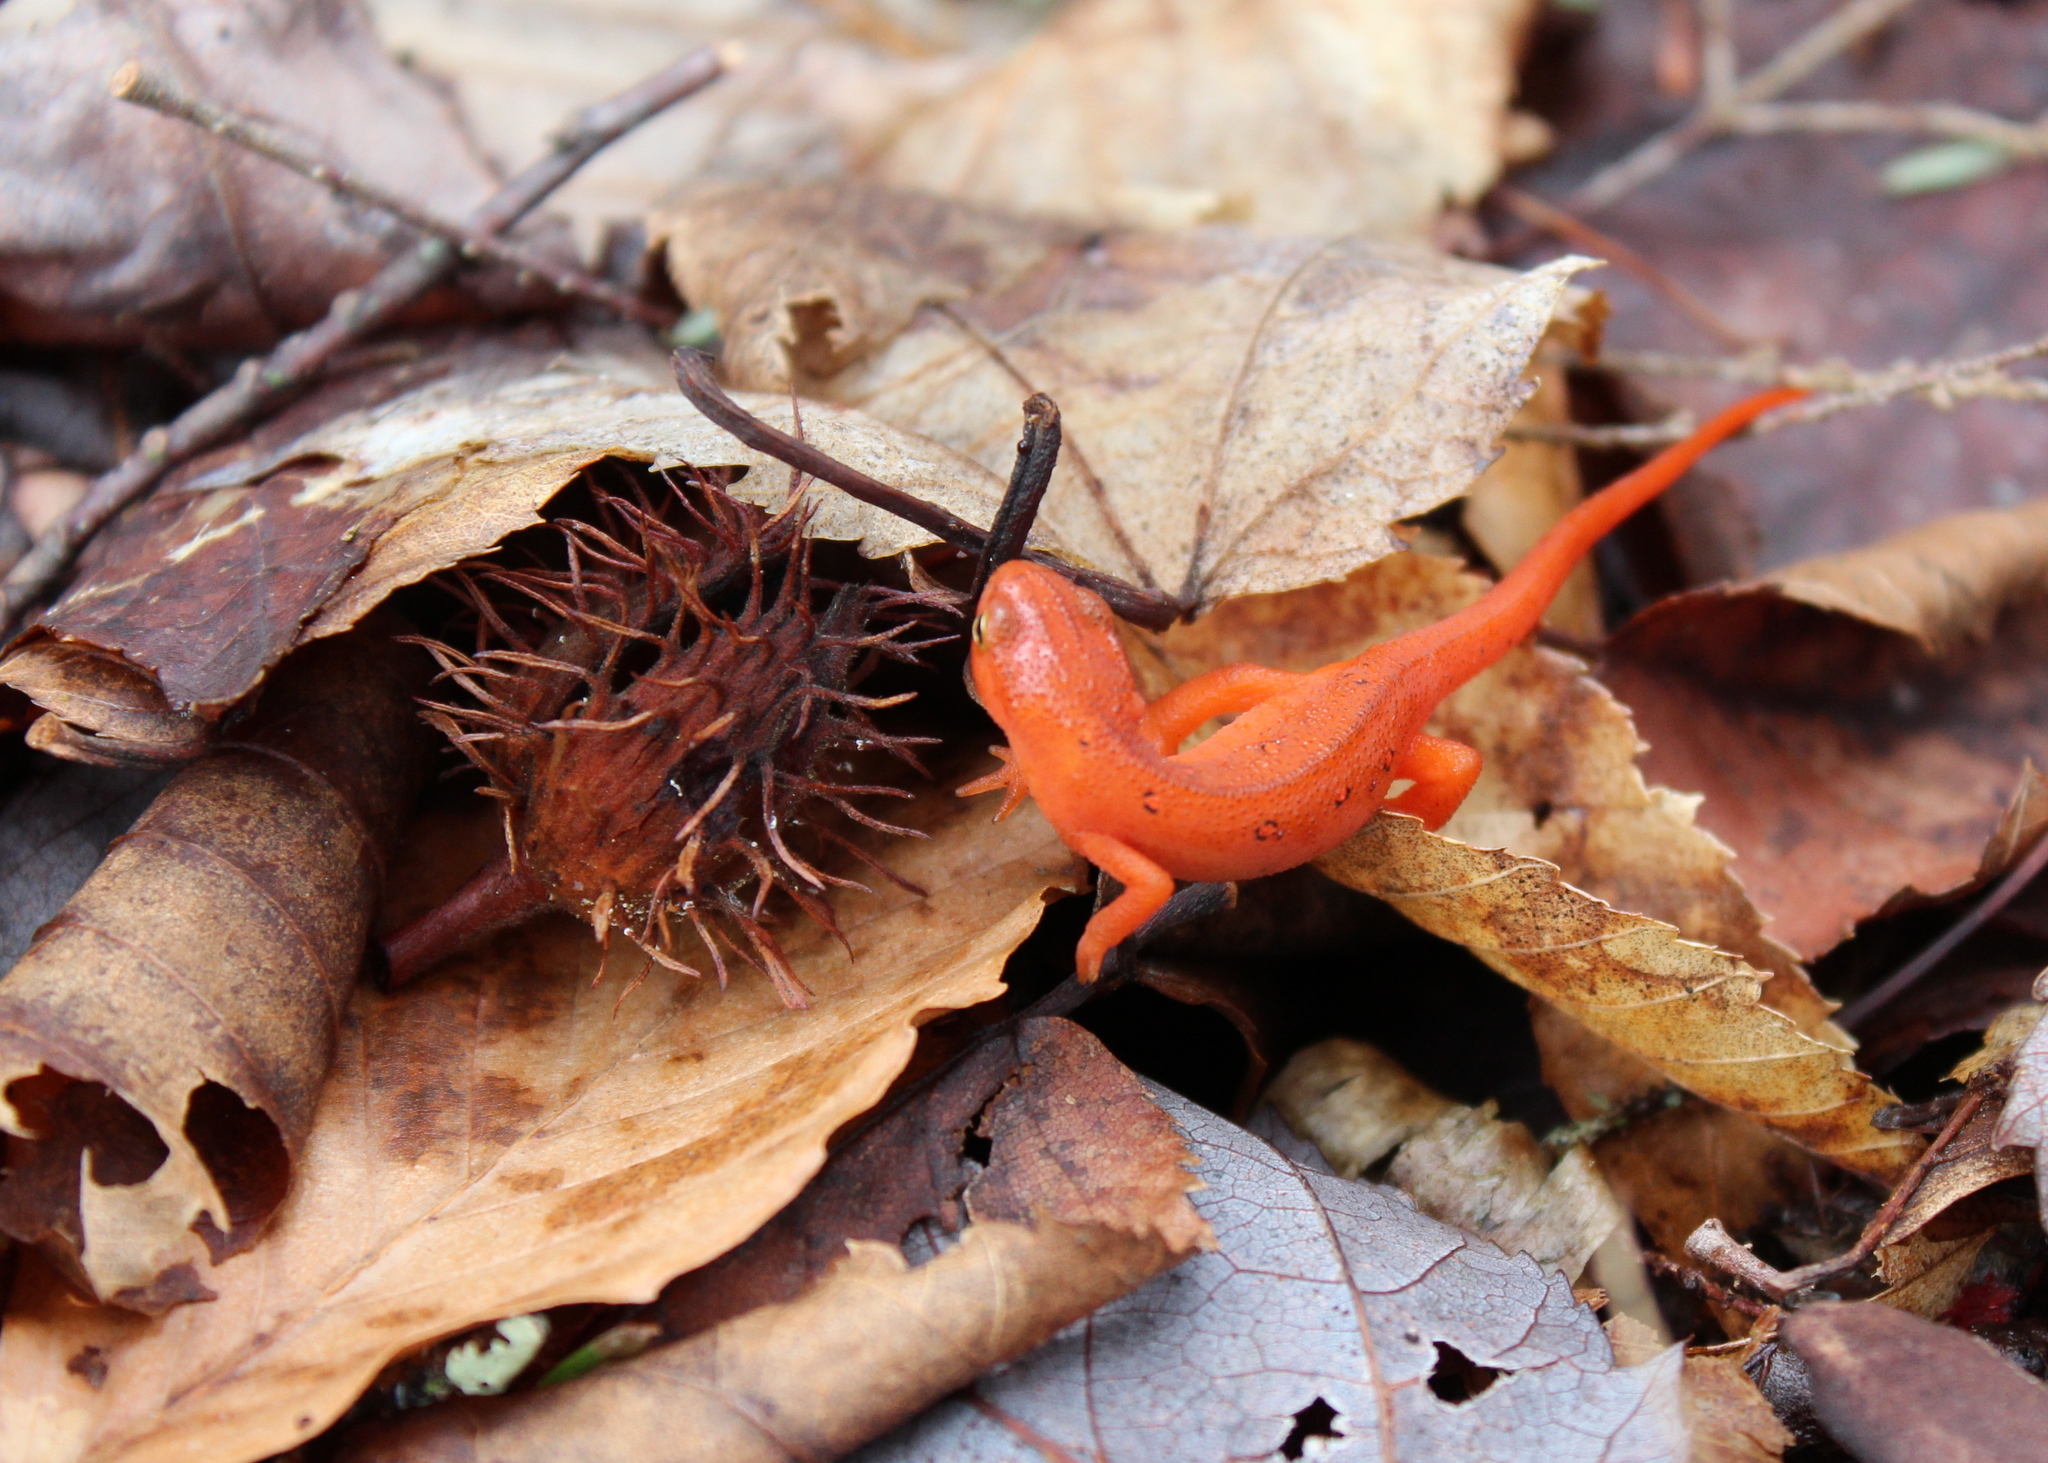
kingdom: Animalia
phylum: Chordata
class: Amphibia
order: Caudata
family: Salamandridae
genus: Notophthalmus
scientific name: Notophthalmus viridescens
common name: Eastern newt
